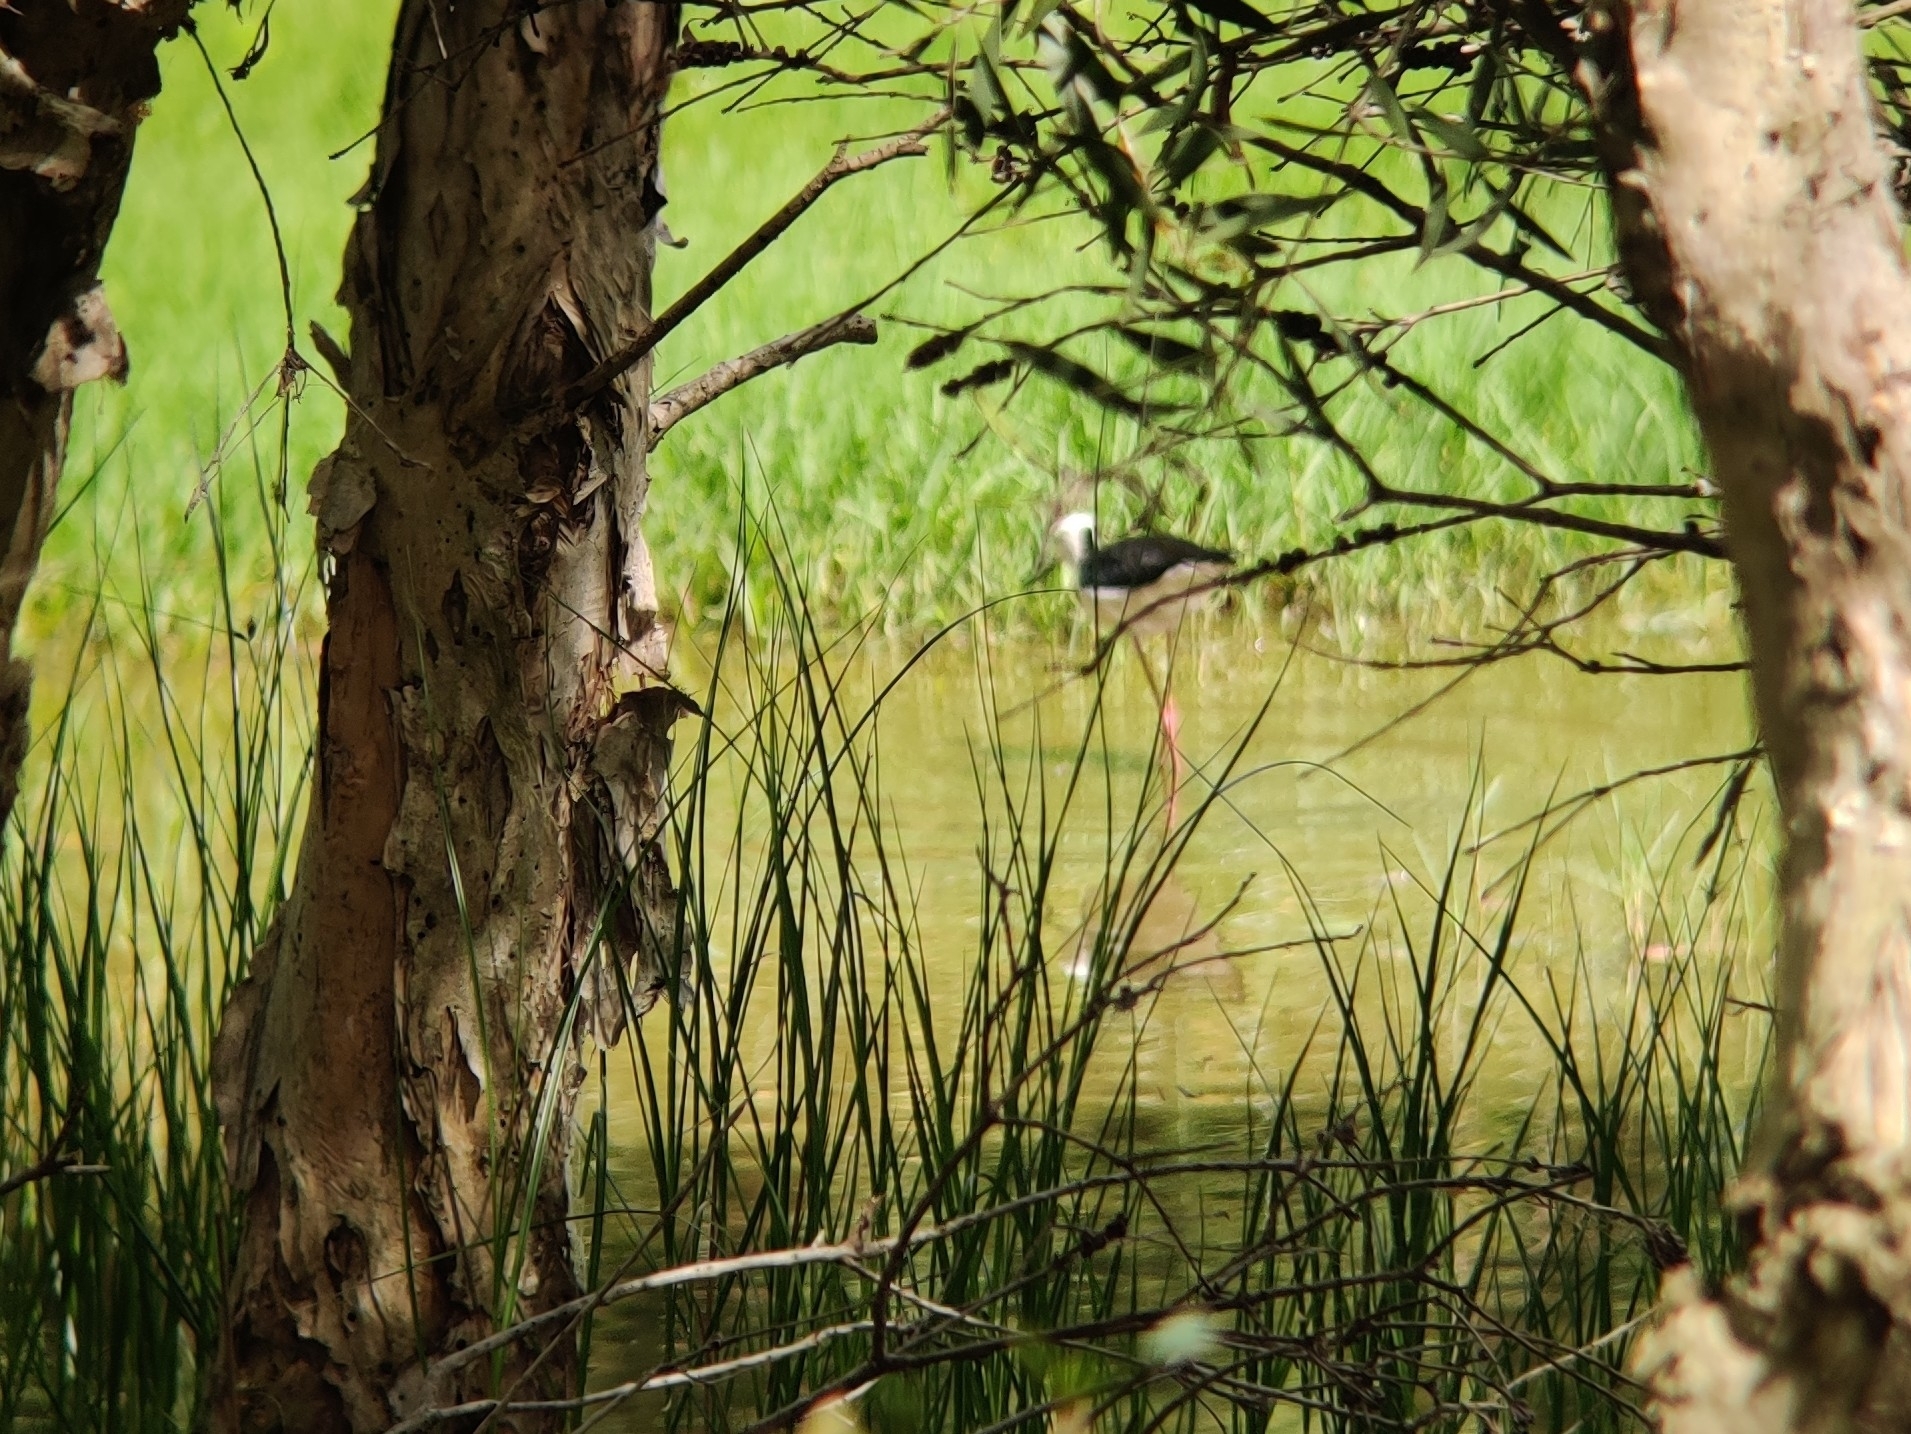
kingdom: Animalia
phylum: Chordata
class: Aves
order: Charadriiformes
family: Recurvirostridae
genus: Himantopus
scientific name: Himantopus leucocephalus
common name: White-headed stilt
